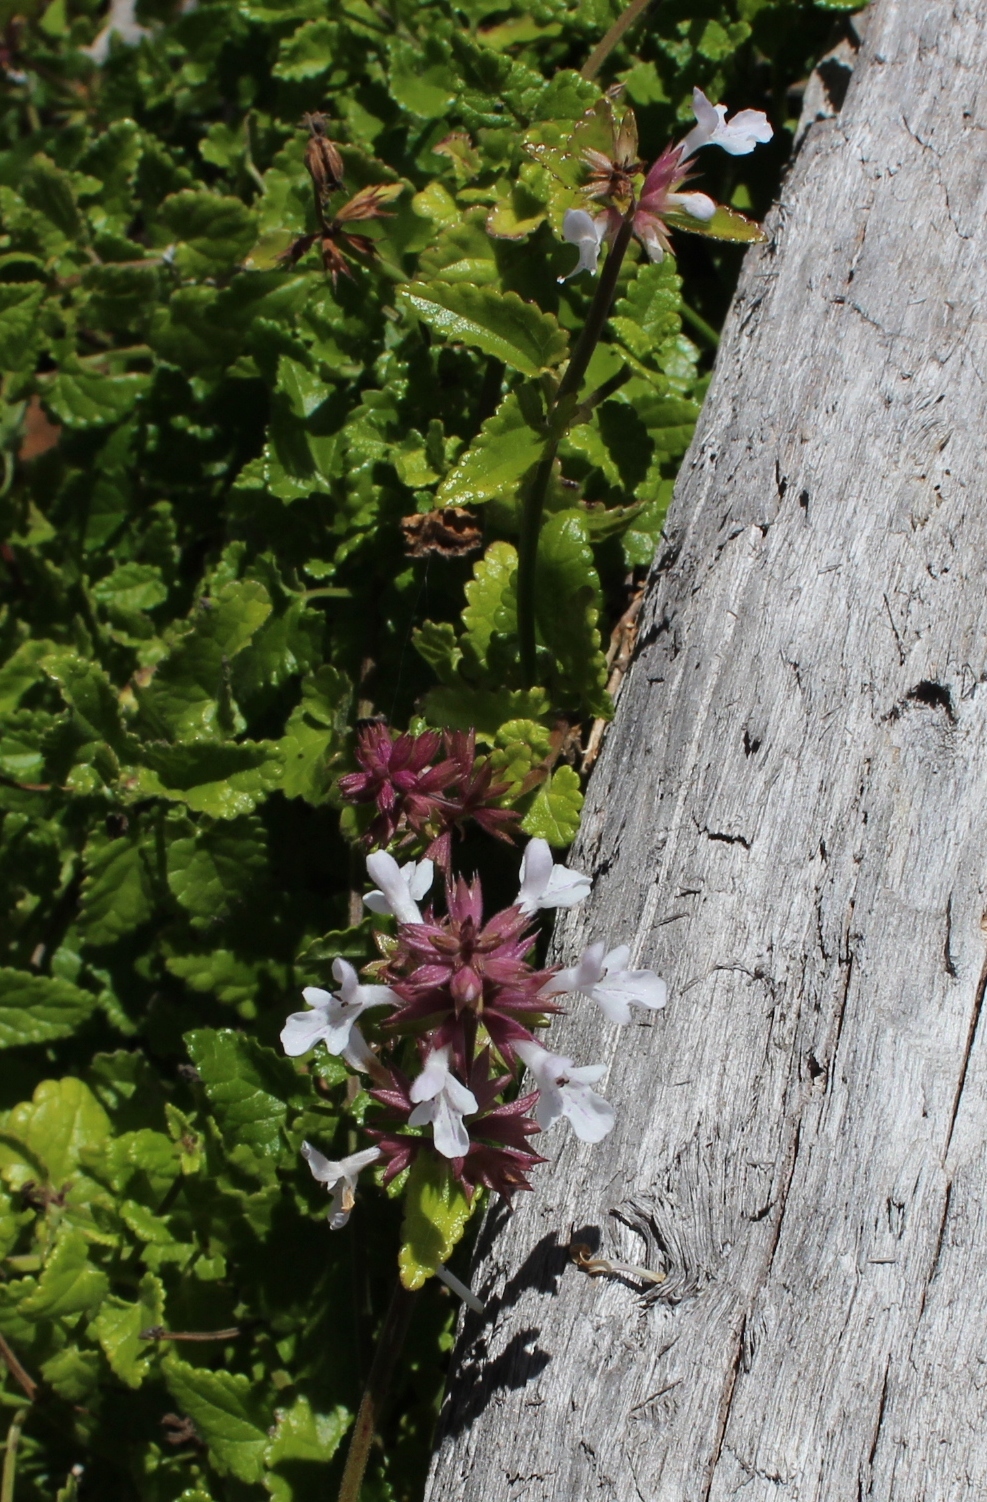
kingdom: Plantae
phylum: Tracheophyta
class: Magnoliopsida
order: Lamiales
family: Lamiaceae
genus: Stachys
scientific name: Stachys aethiopica
